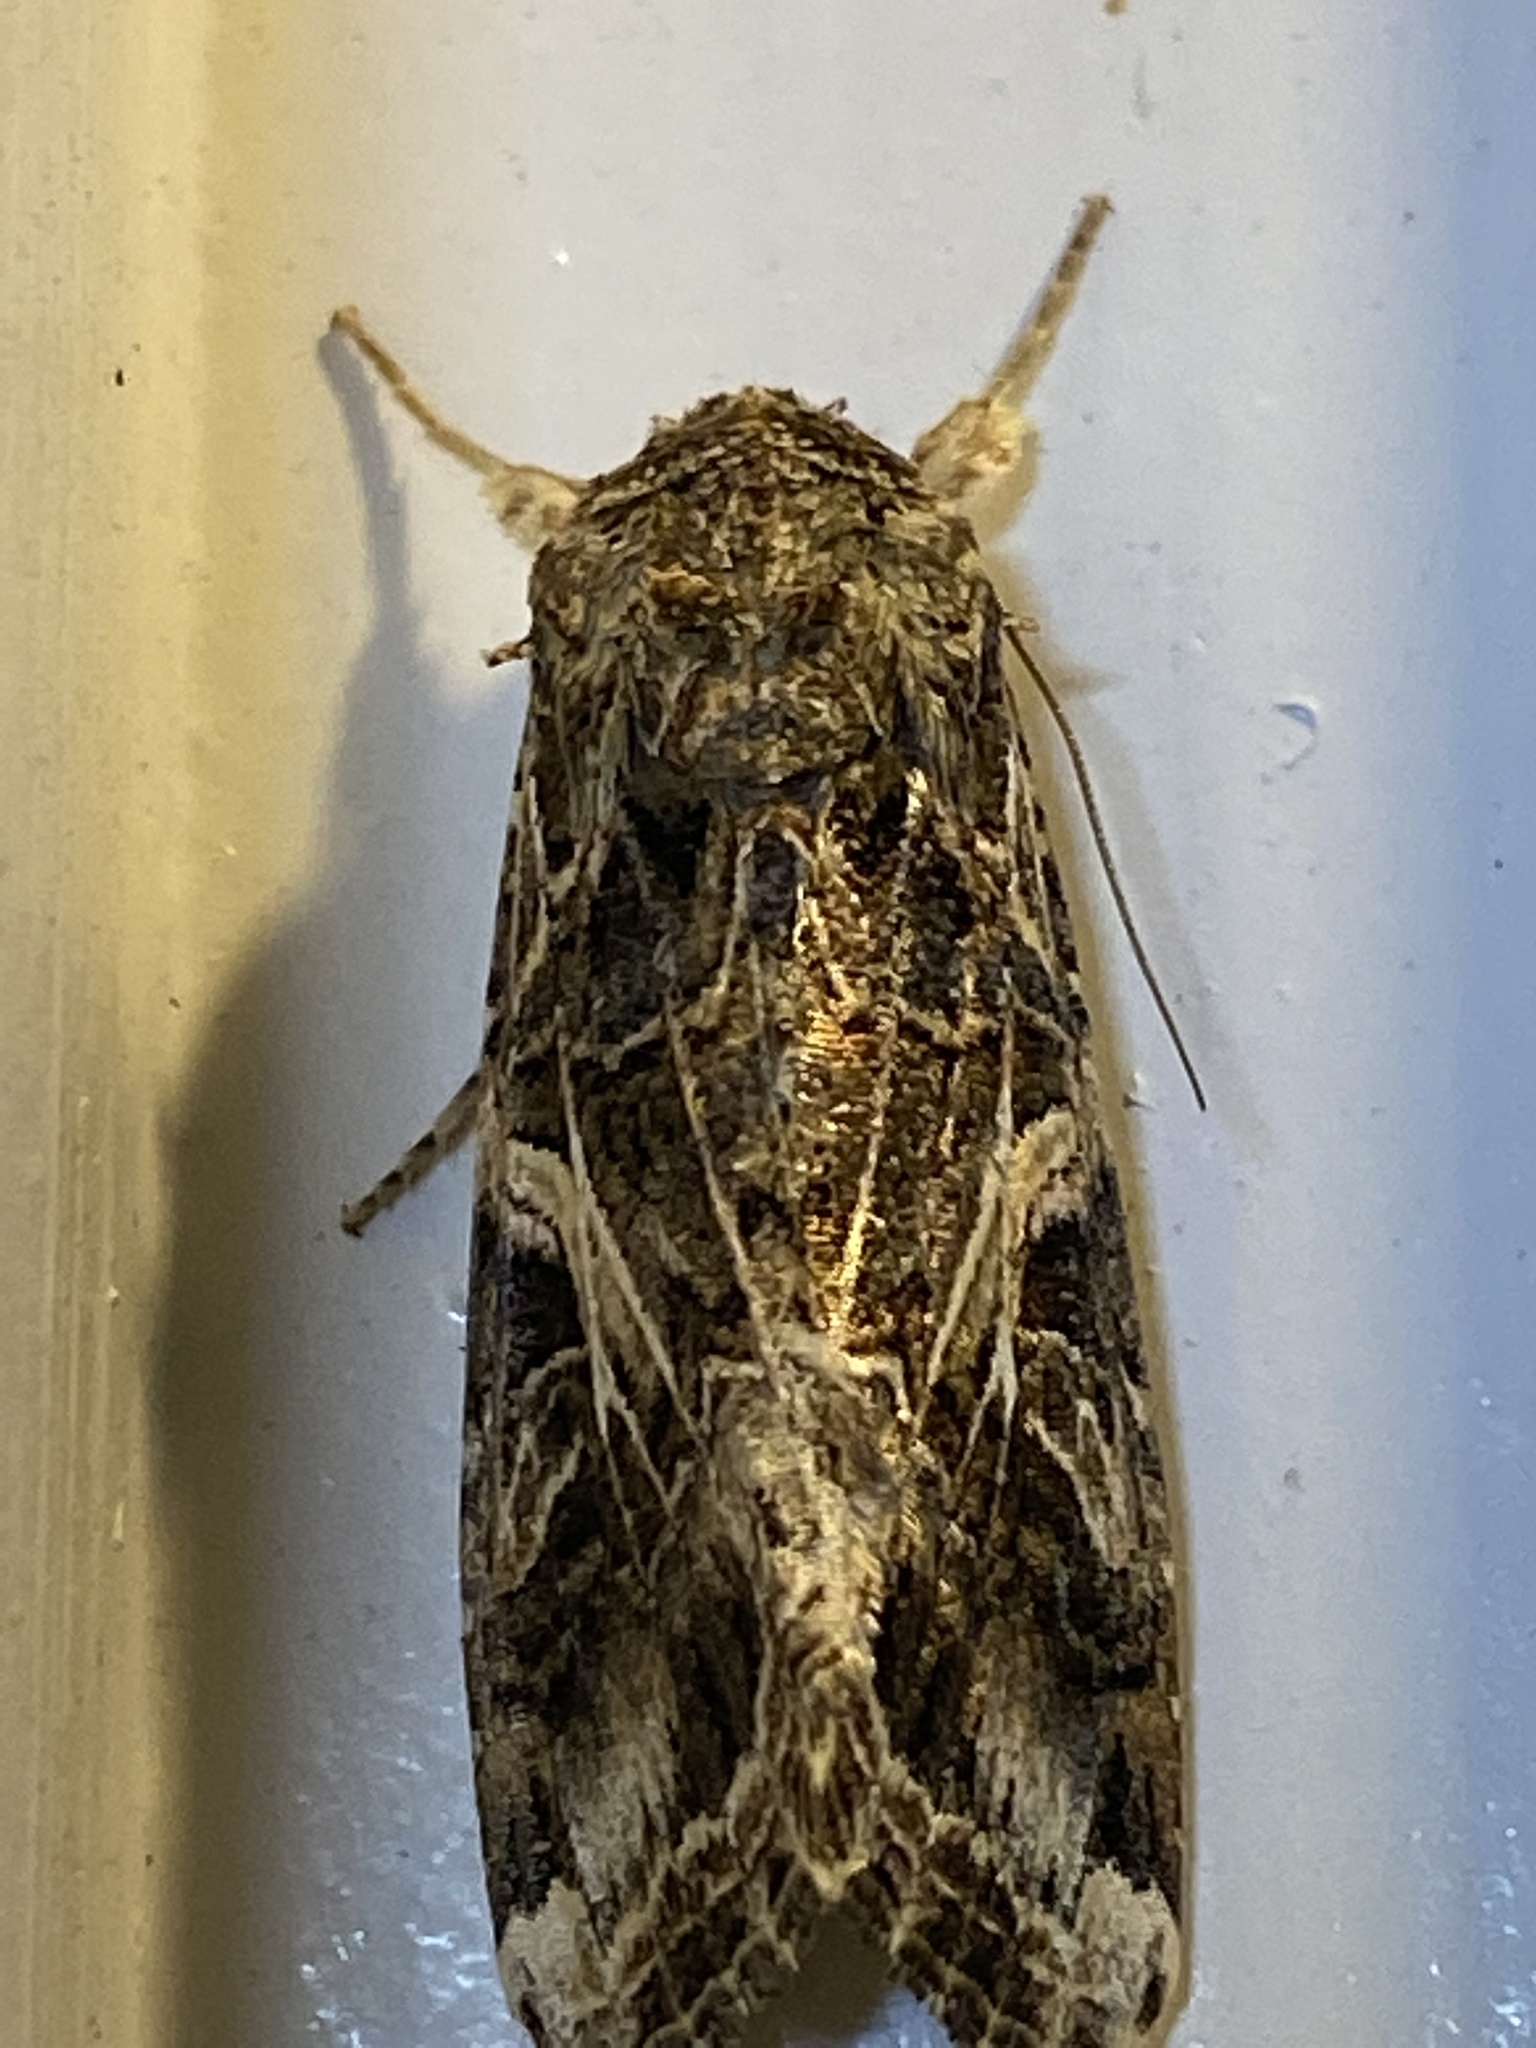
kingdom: Animalia
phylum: Arthropoda
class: Insecta
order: Lepidoptera
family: Noctuidae
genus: Spodoptera
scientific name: Spodoptera ornithogalli
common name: Yellow-striped armyworm
